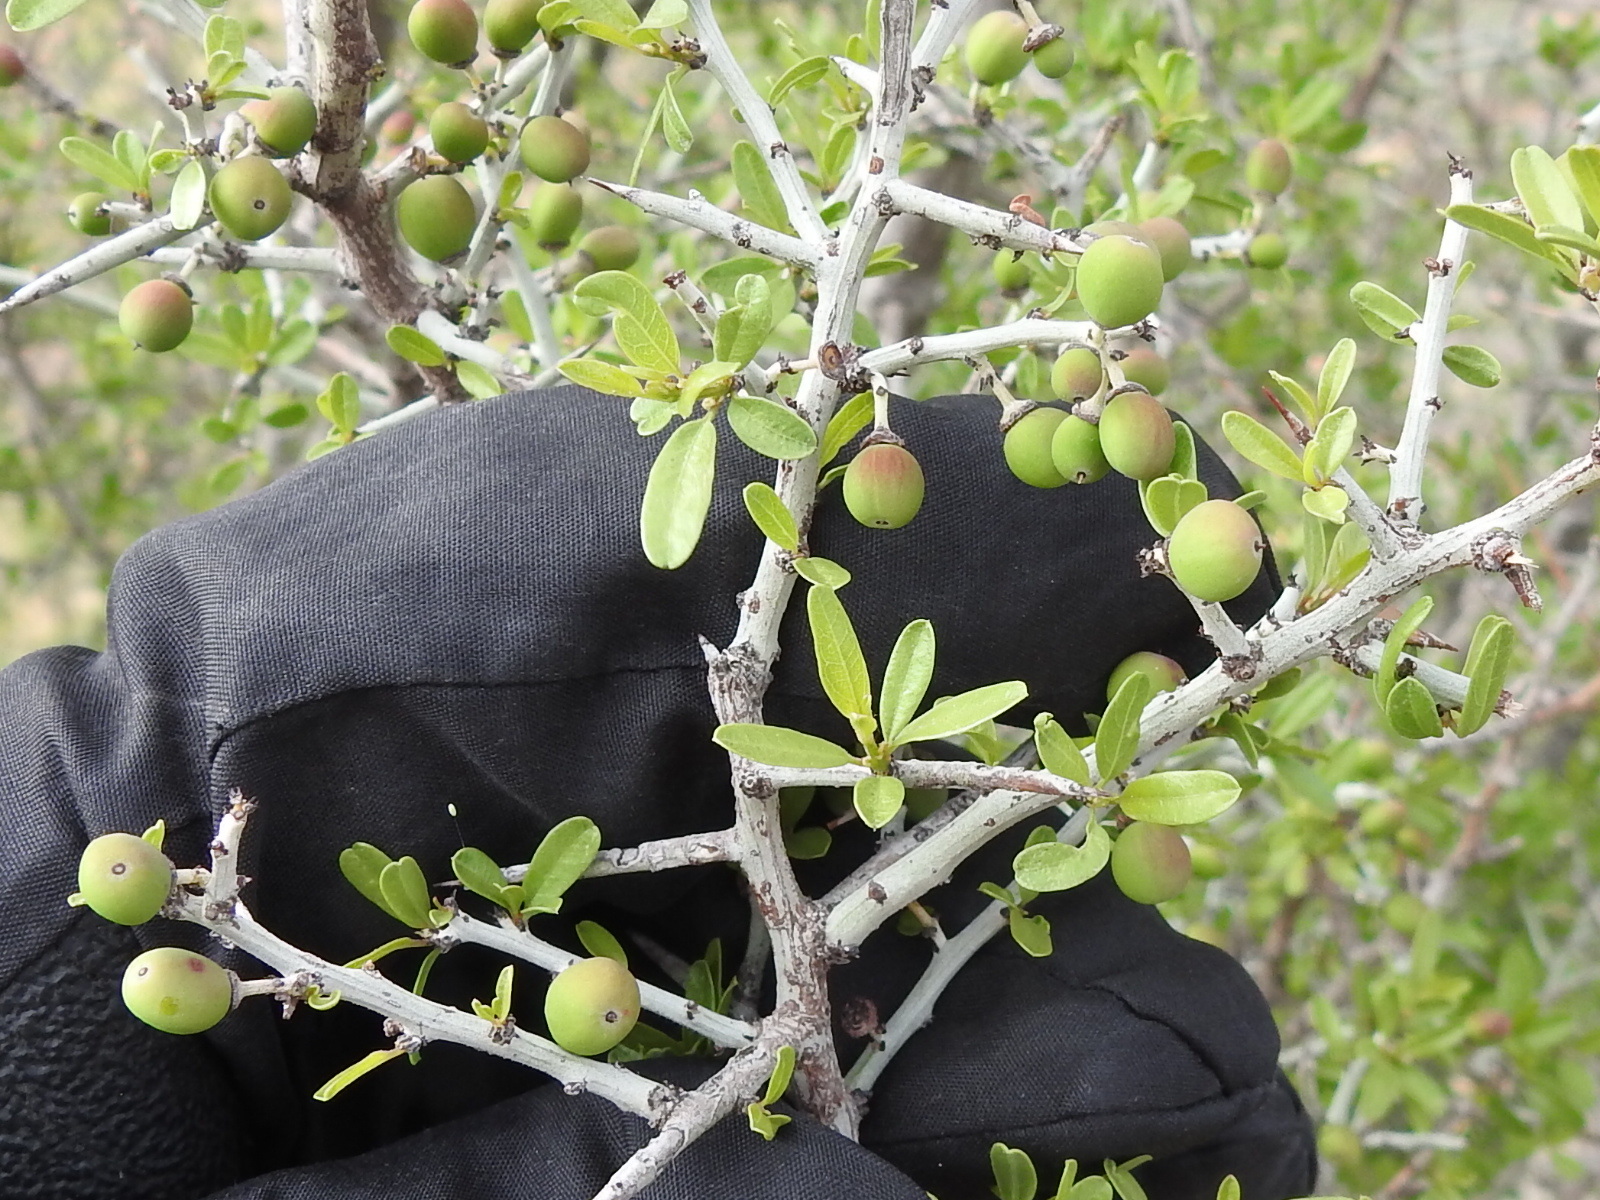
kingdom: Plantae
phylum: Tracheophyta
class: Magnoliopsida
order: Rosales
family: Rhamnaceae
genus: Sarcomphalus
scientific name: Sarcomphalus obtusifolius
